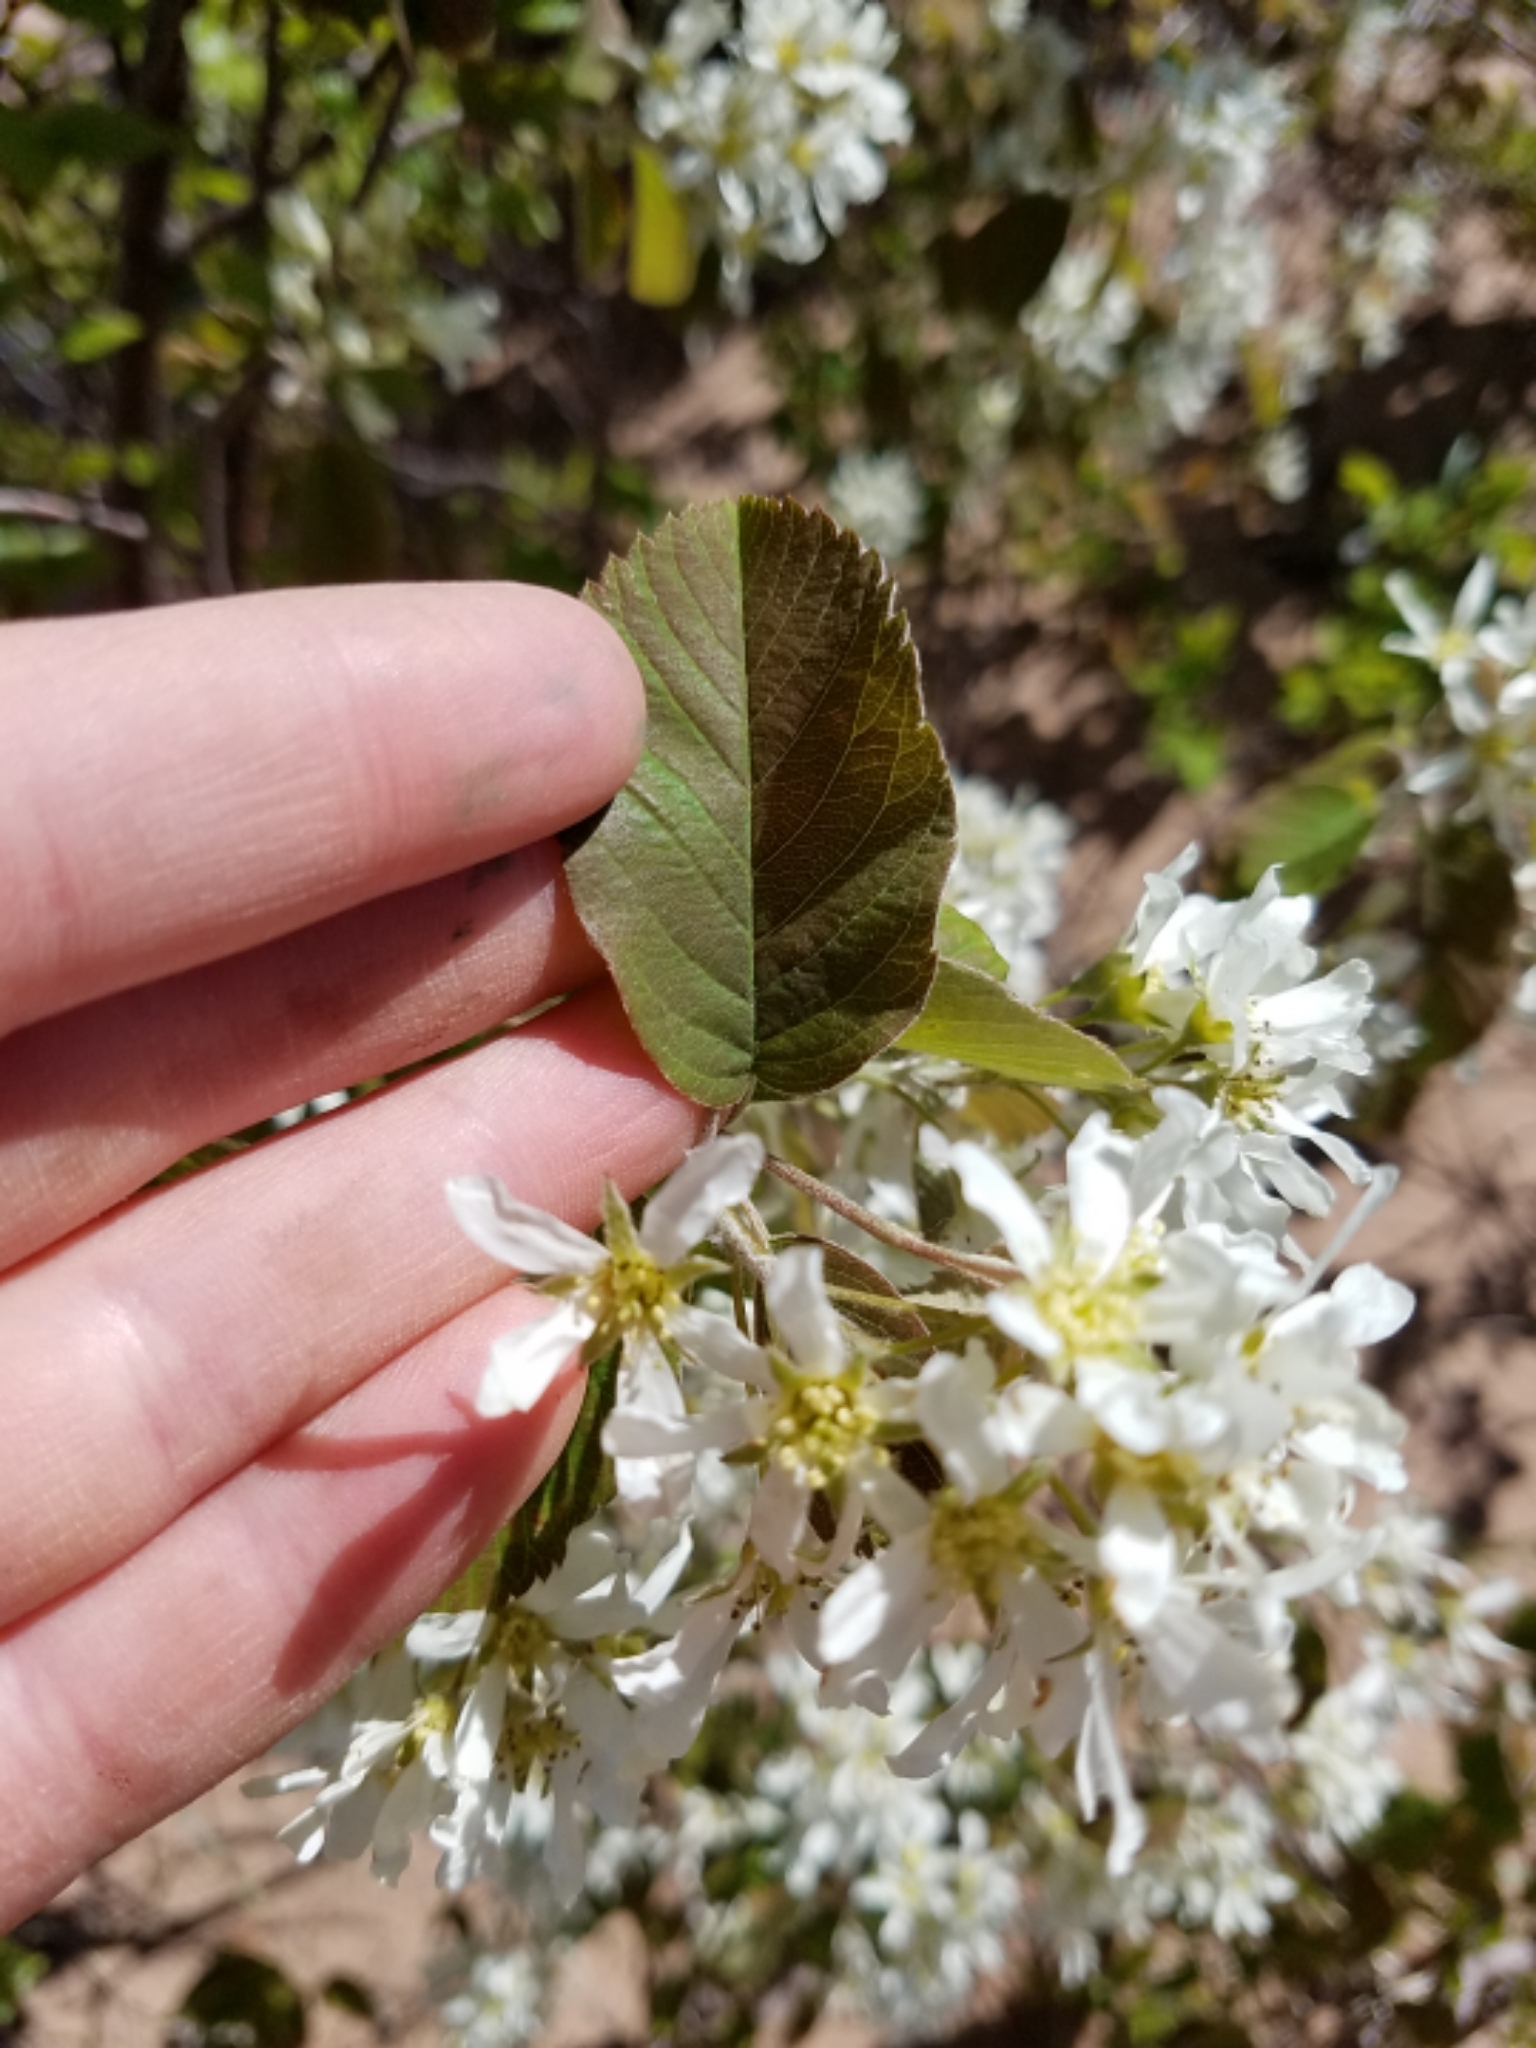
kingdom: Plantae
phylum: Tracheophyta
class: Magnoliopsida
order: Rosales
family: Rosaceae
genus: Amelanchier
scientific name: Amelanchier sanguinea
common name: Huron serviceberry
